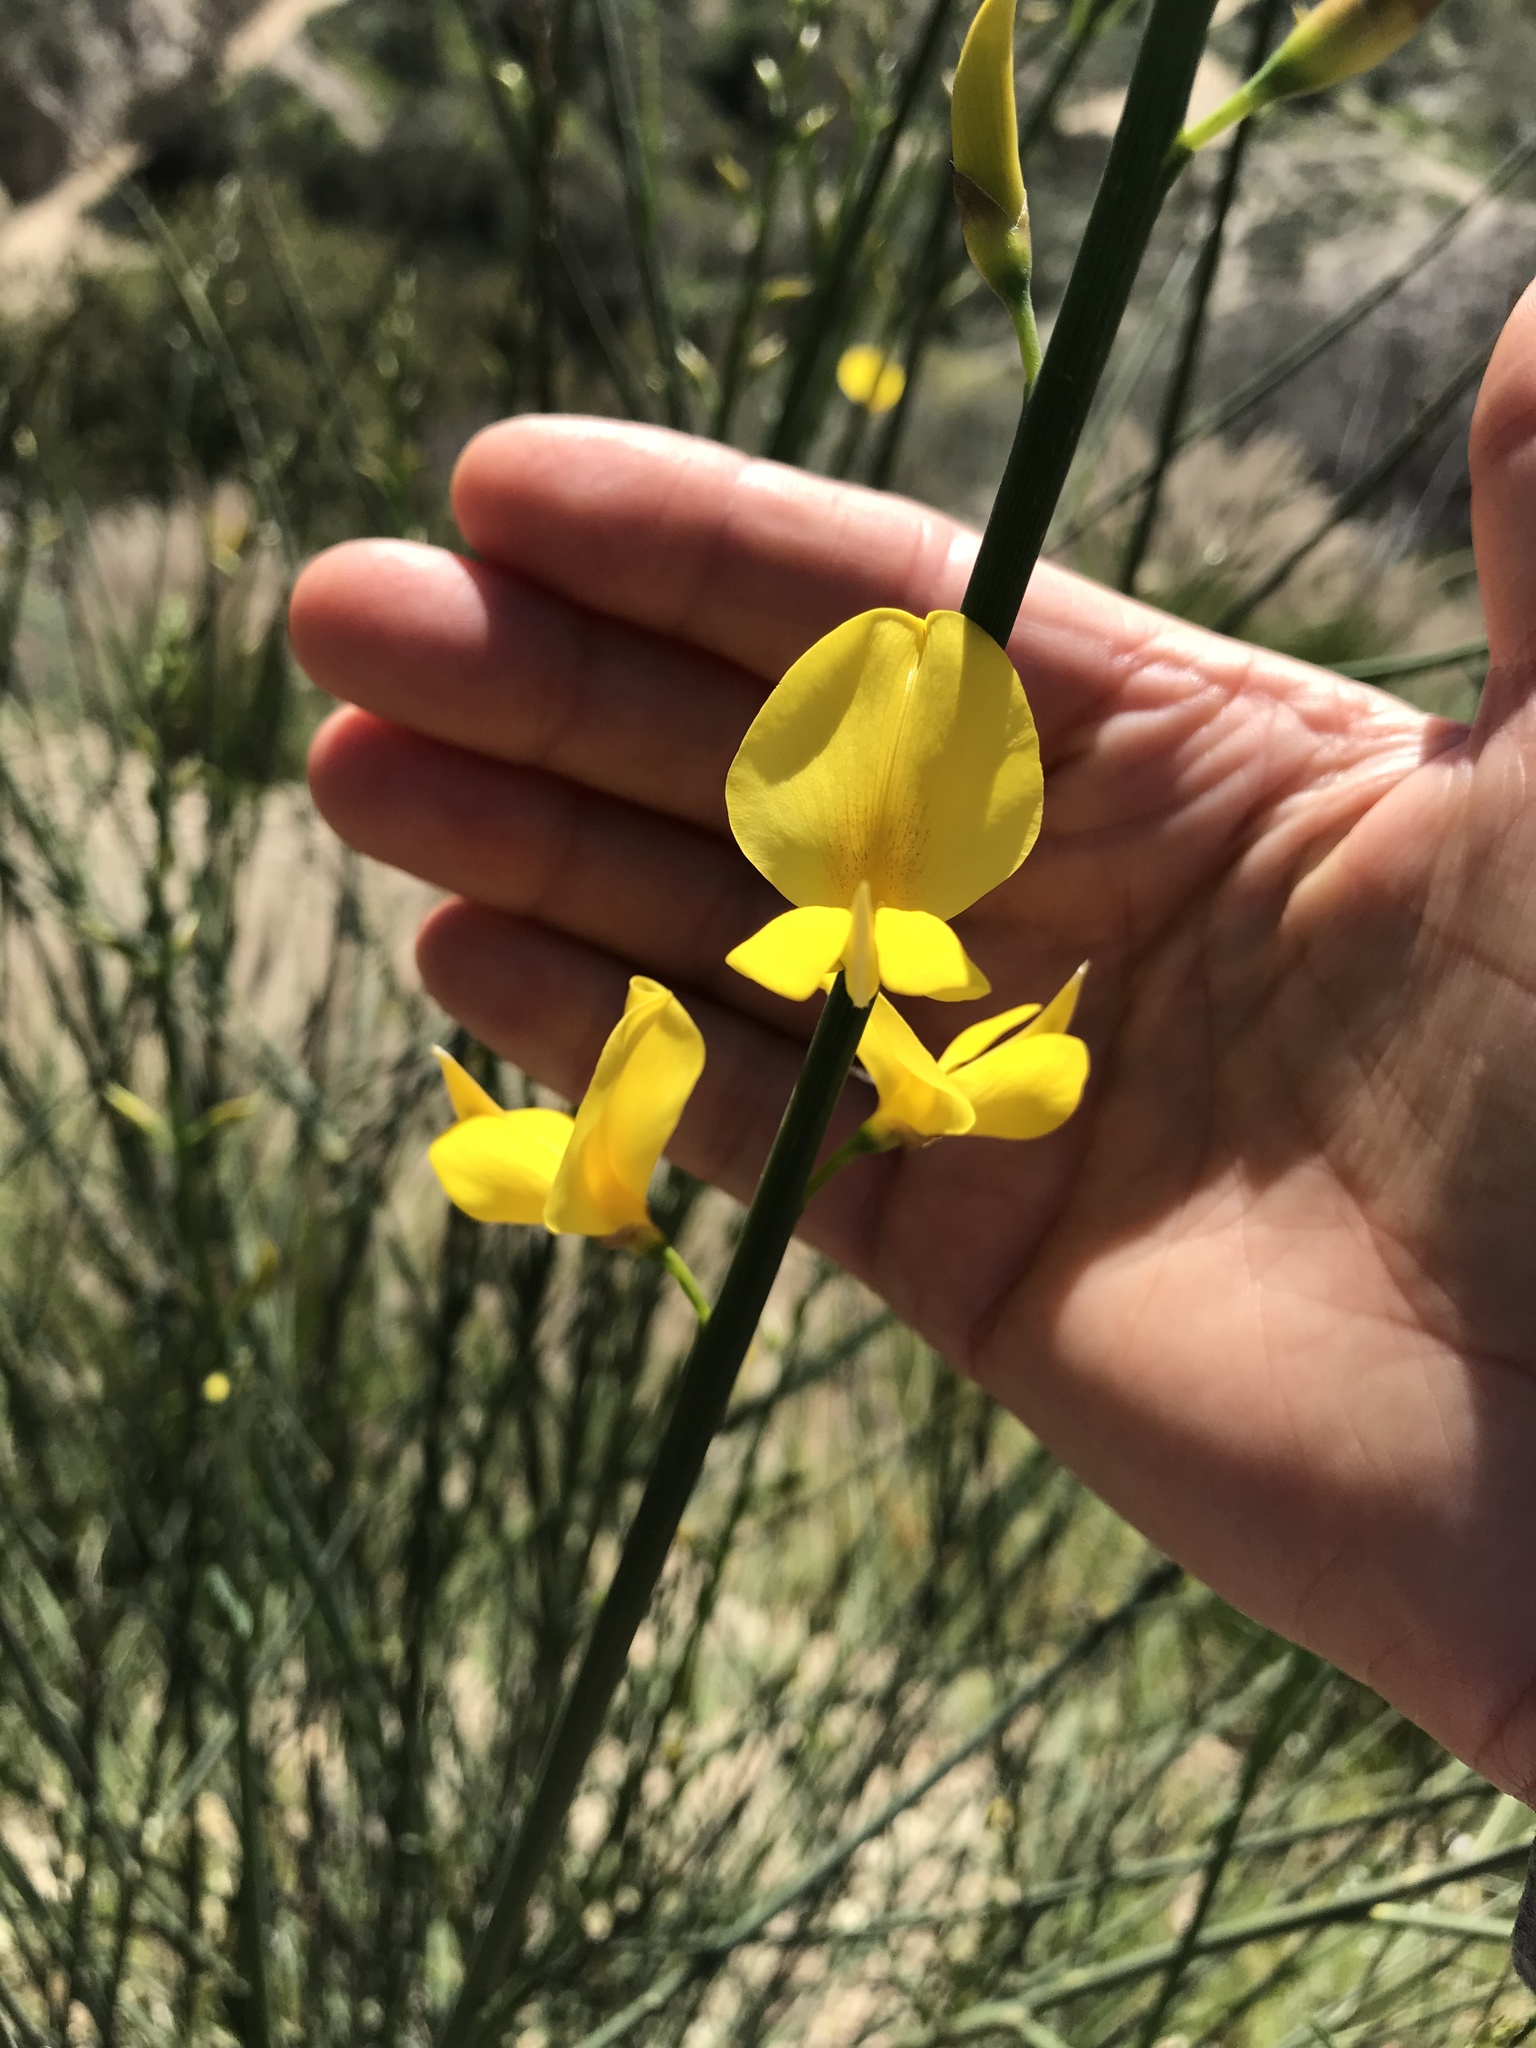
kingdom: Plantae
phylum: Tracheophyta
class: Magnoliopsida
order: Fabales
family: Fabaceae
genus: Spartium
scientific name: Spartium junceum
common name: Spanish broom
